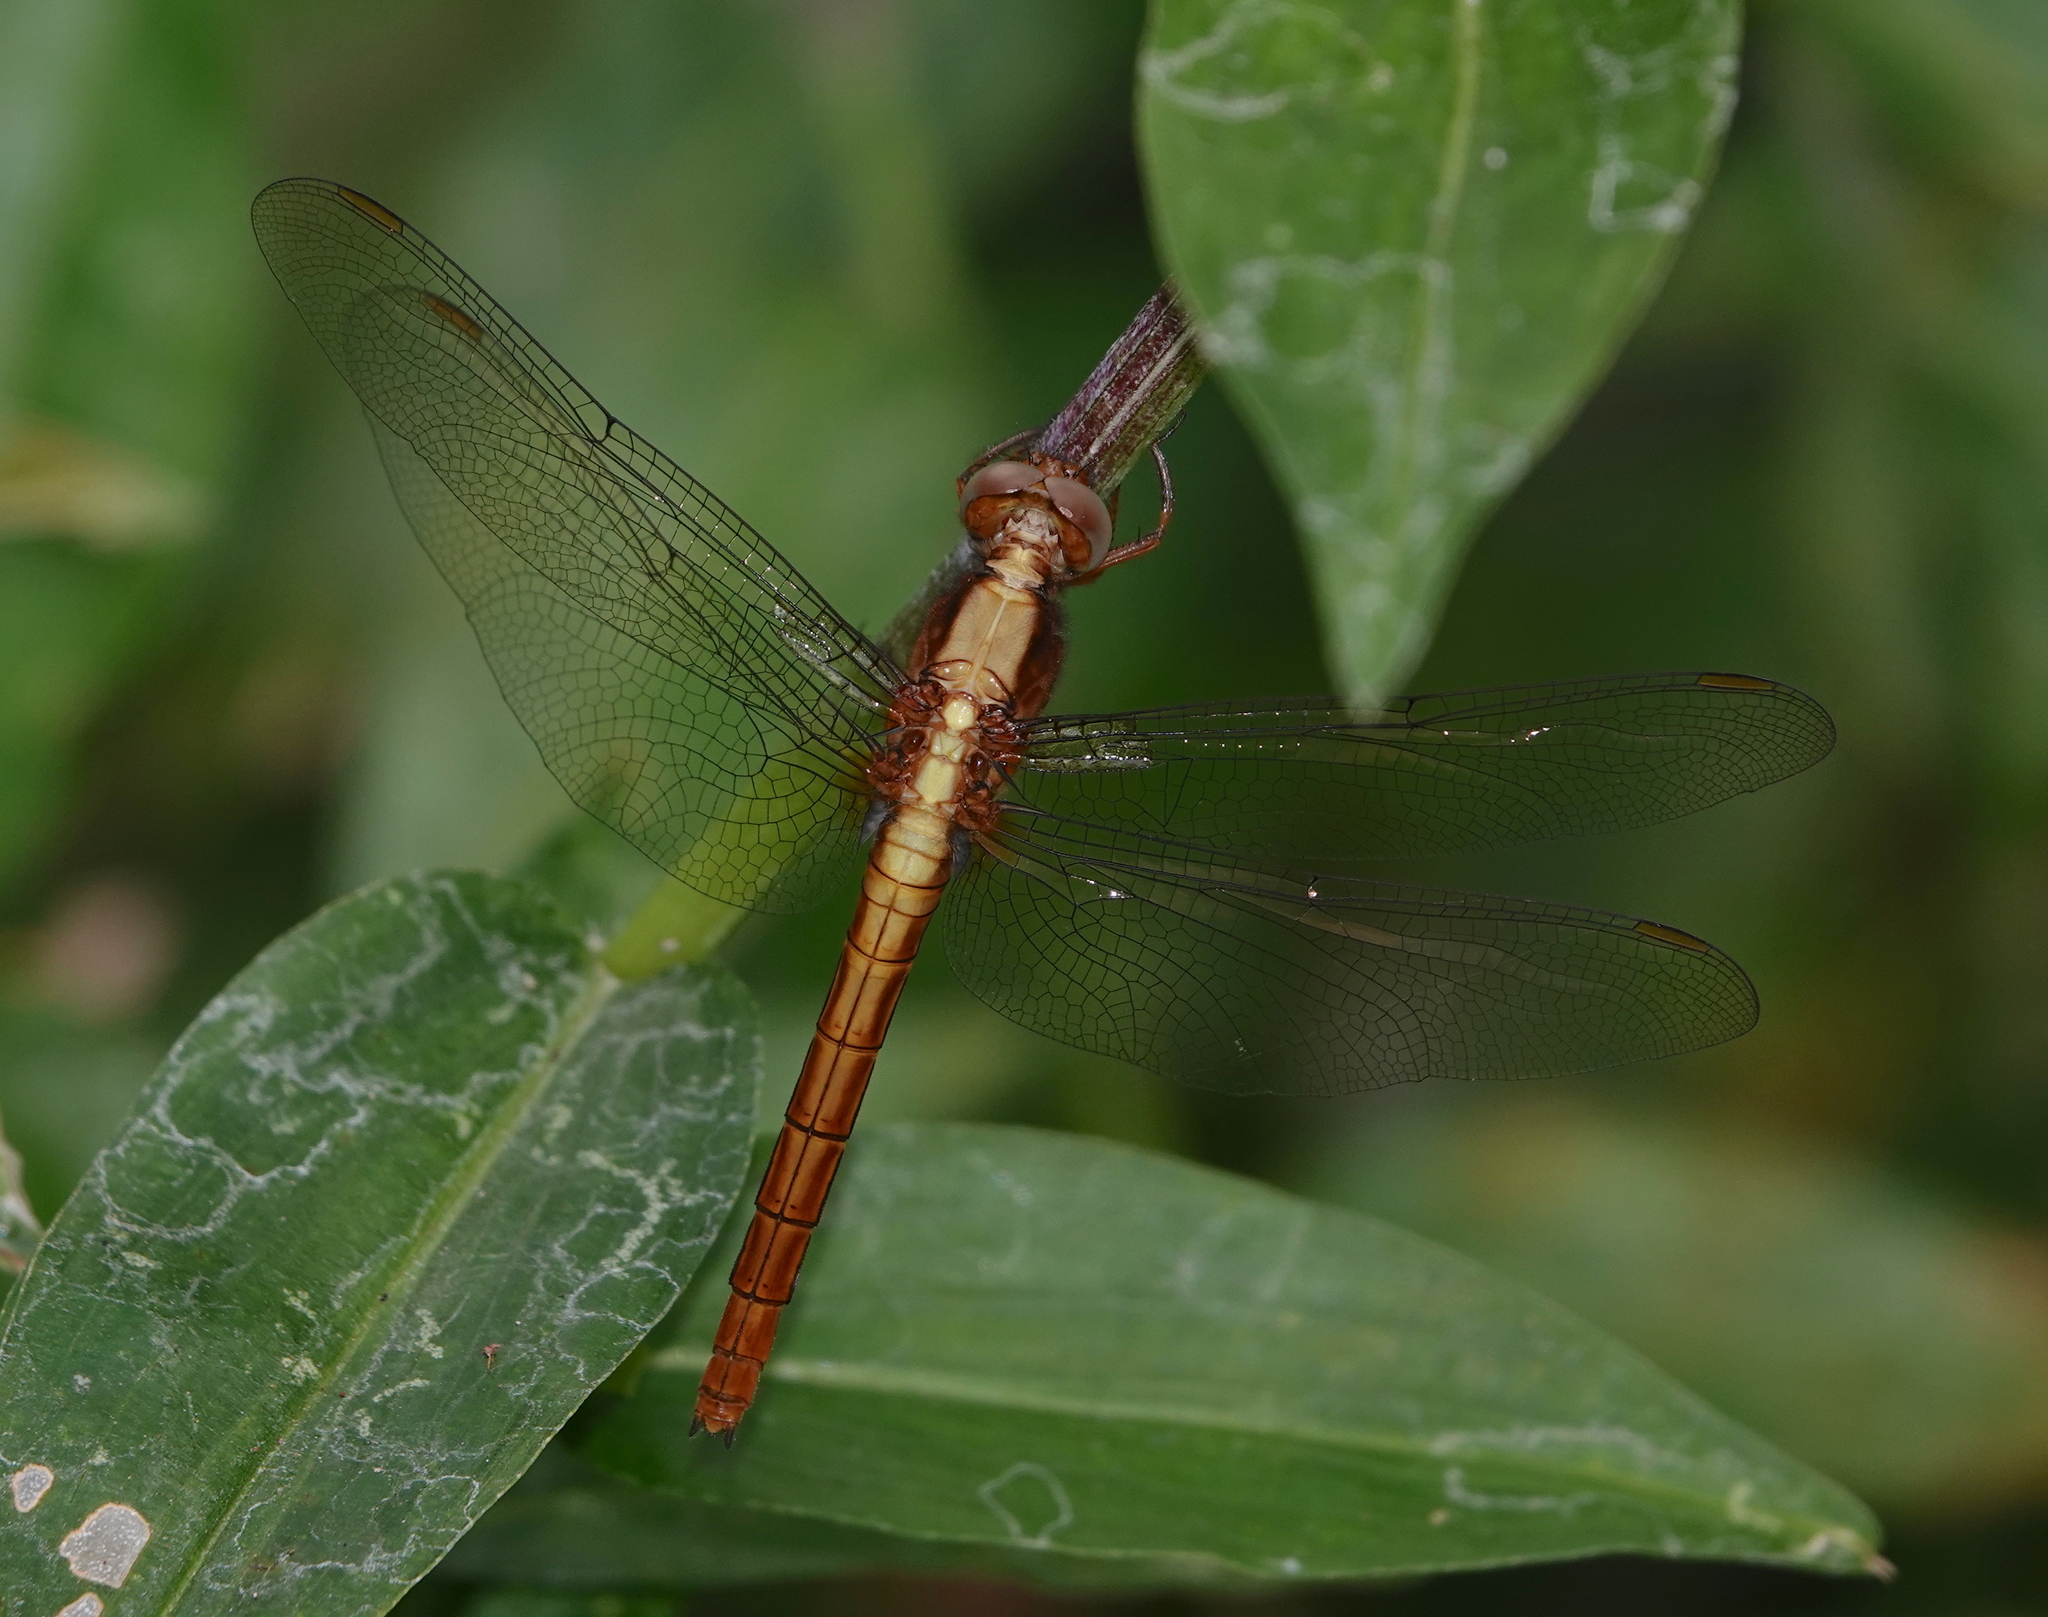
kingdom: Animalia
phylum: Arthropoda
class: Insecta
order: Odonata
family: Libellulidae
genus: Orthetrum
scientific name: Orthetrum glaucum
